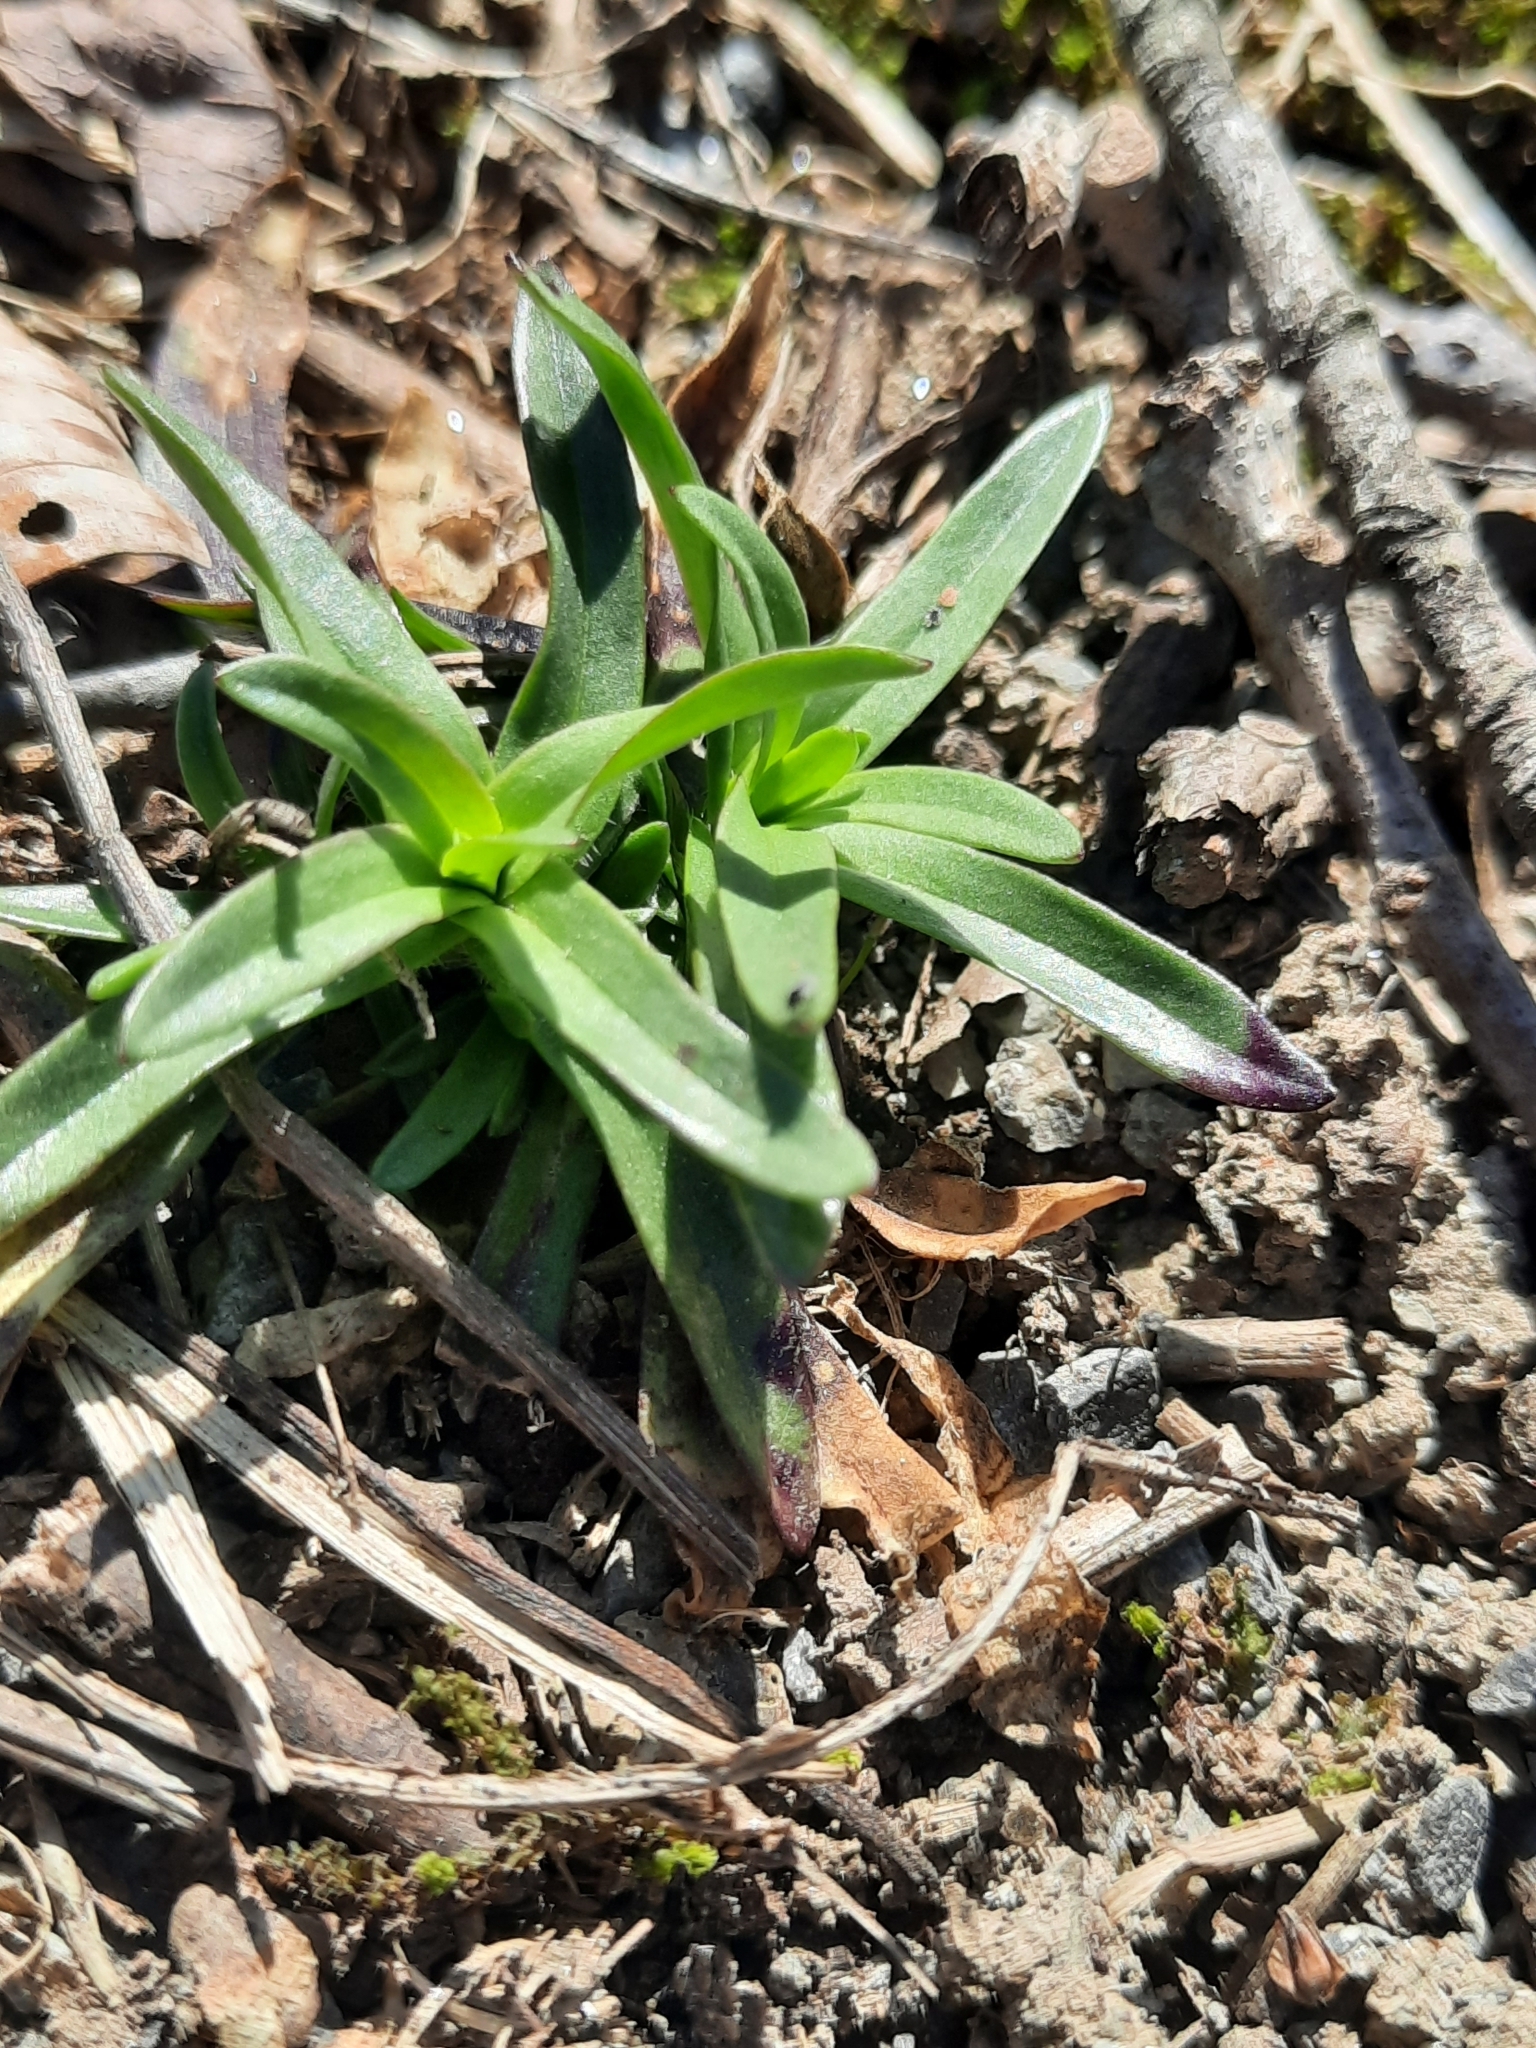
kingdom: Plantae
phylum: Tracheophyta
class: Magnoliopsida
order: Caryophyllales
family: Caryophyllaceae
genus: Dianthus
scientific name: Dianthus armeria
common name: Deptford pink
